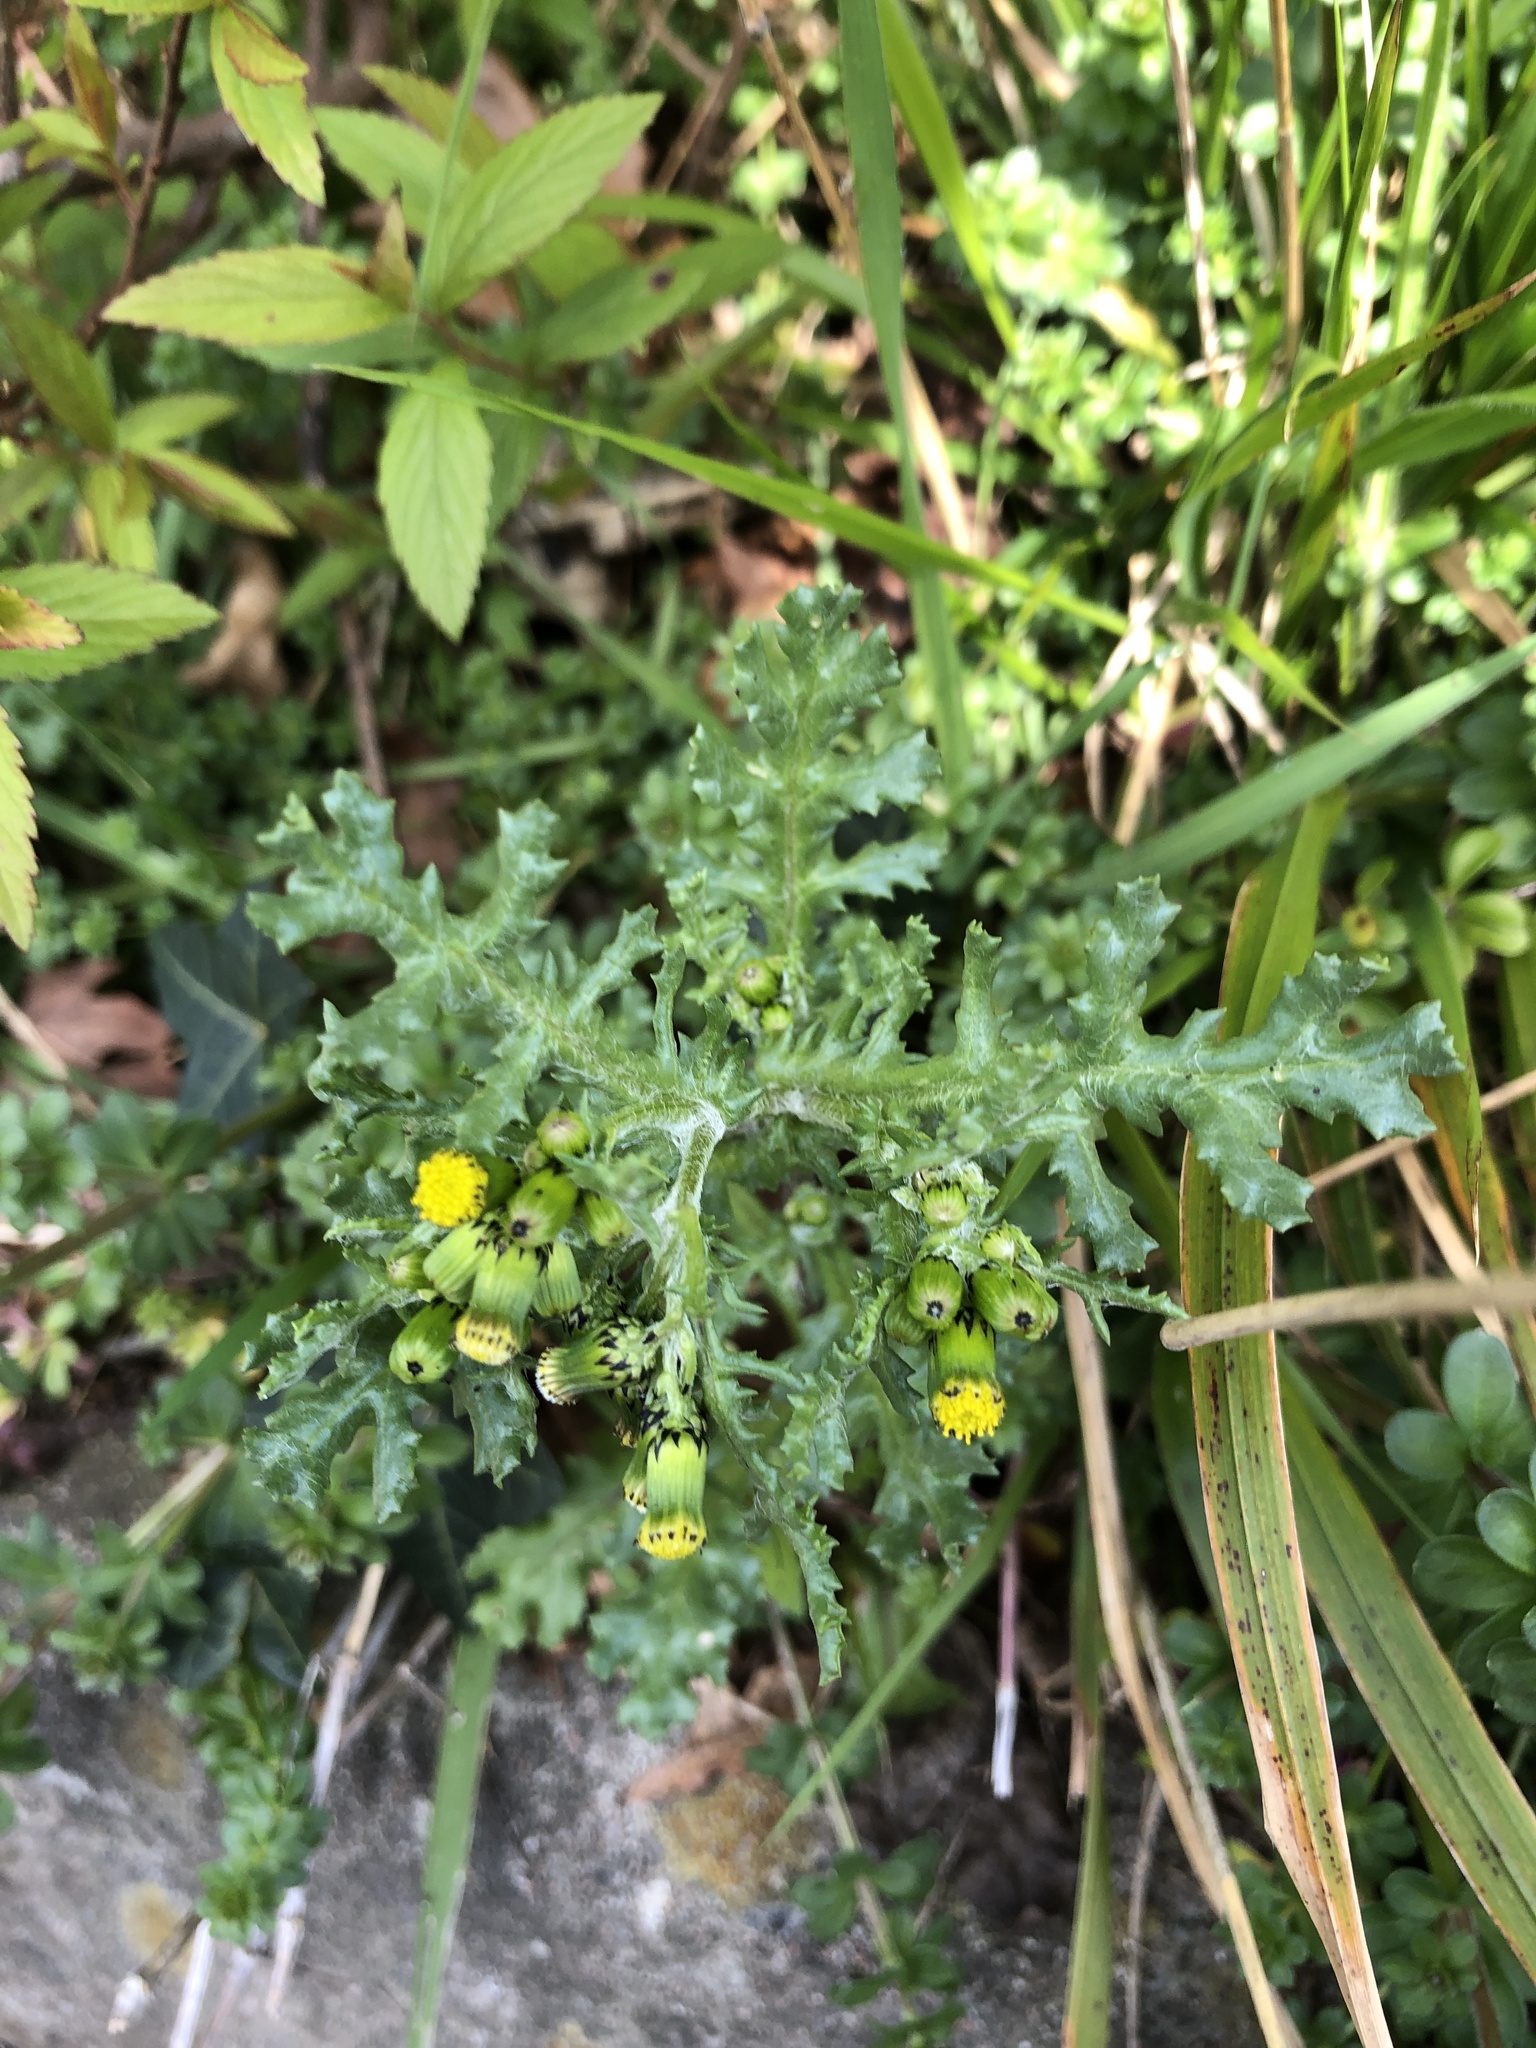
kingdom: Plantae
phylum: Tracheophyta
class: Magnoliopsida
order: Asterales
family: Asteraceae
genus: Senecio
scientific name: Senecio vulgaris
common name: Old-man-in-the-spring
